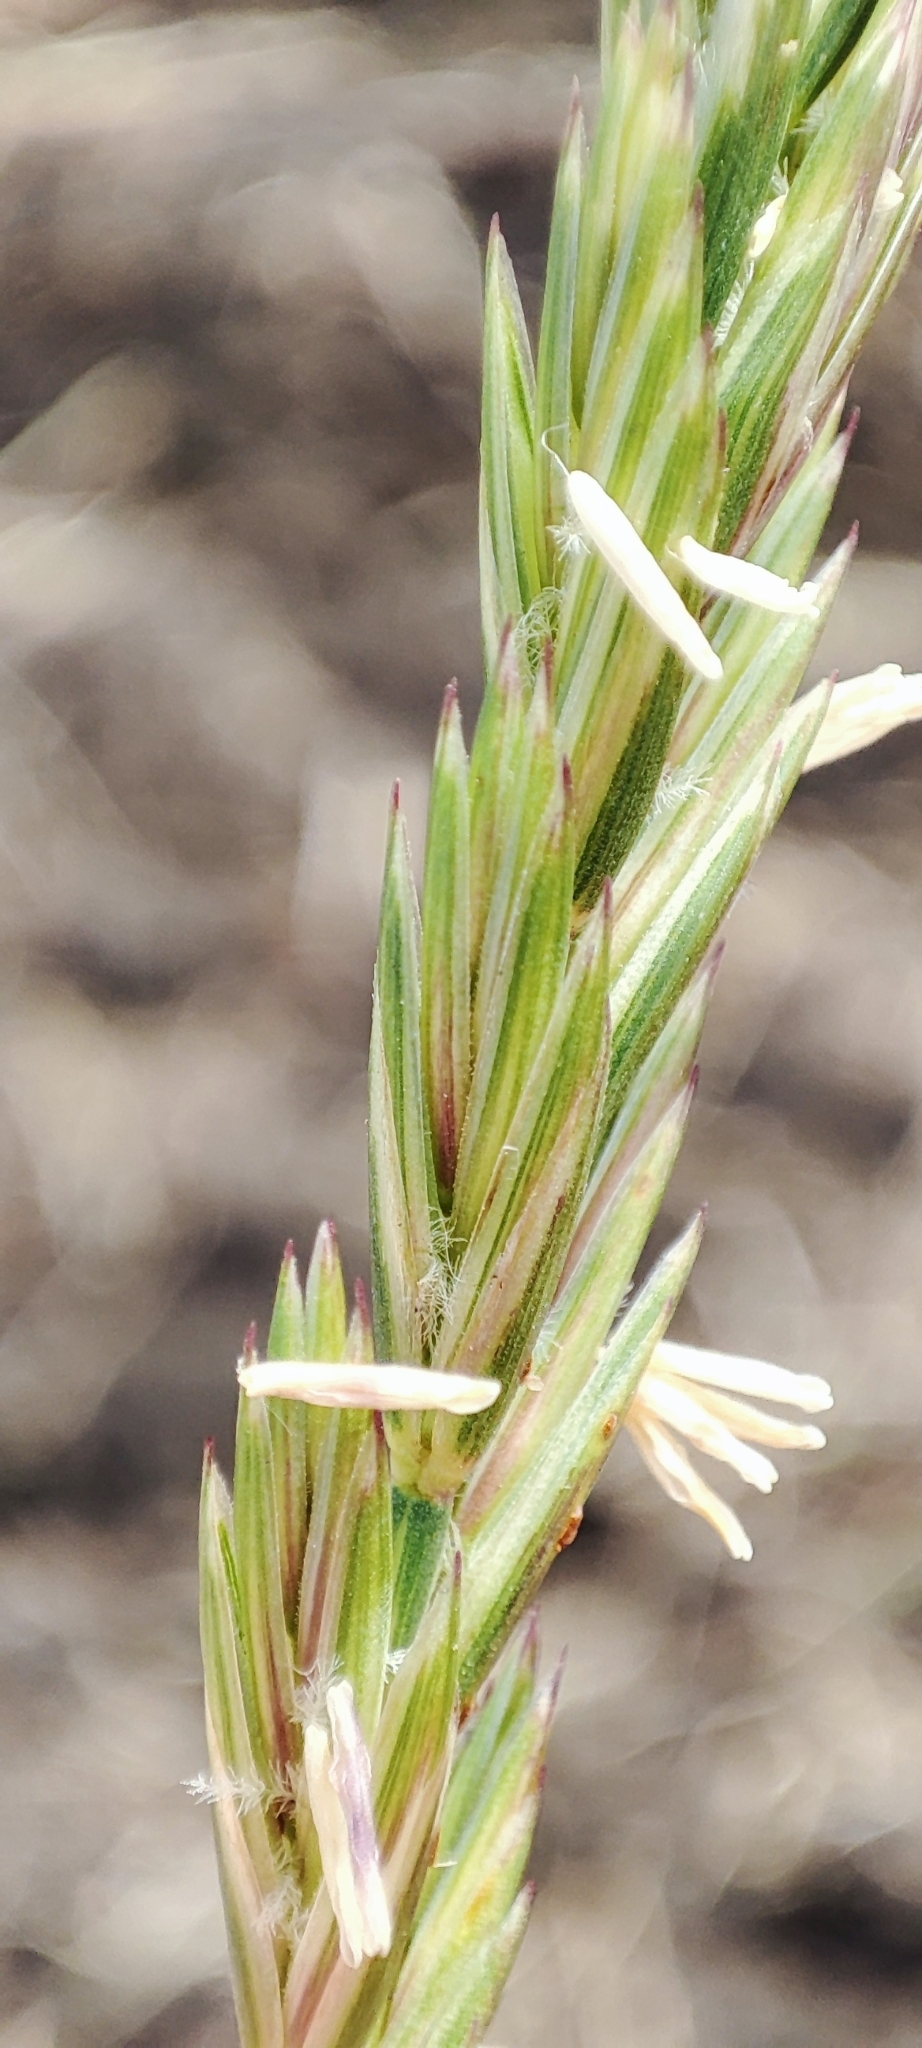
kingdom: Plantae
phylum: Tracheophyta
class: Liliopsida
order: Poales
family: Poaceae
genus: Elymus
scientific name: Elymus repens
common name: Quackgrass
